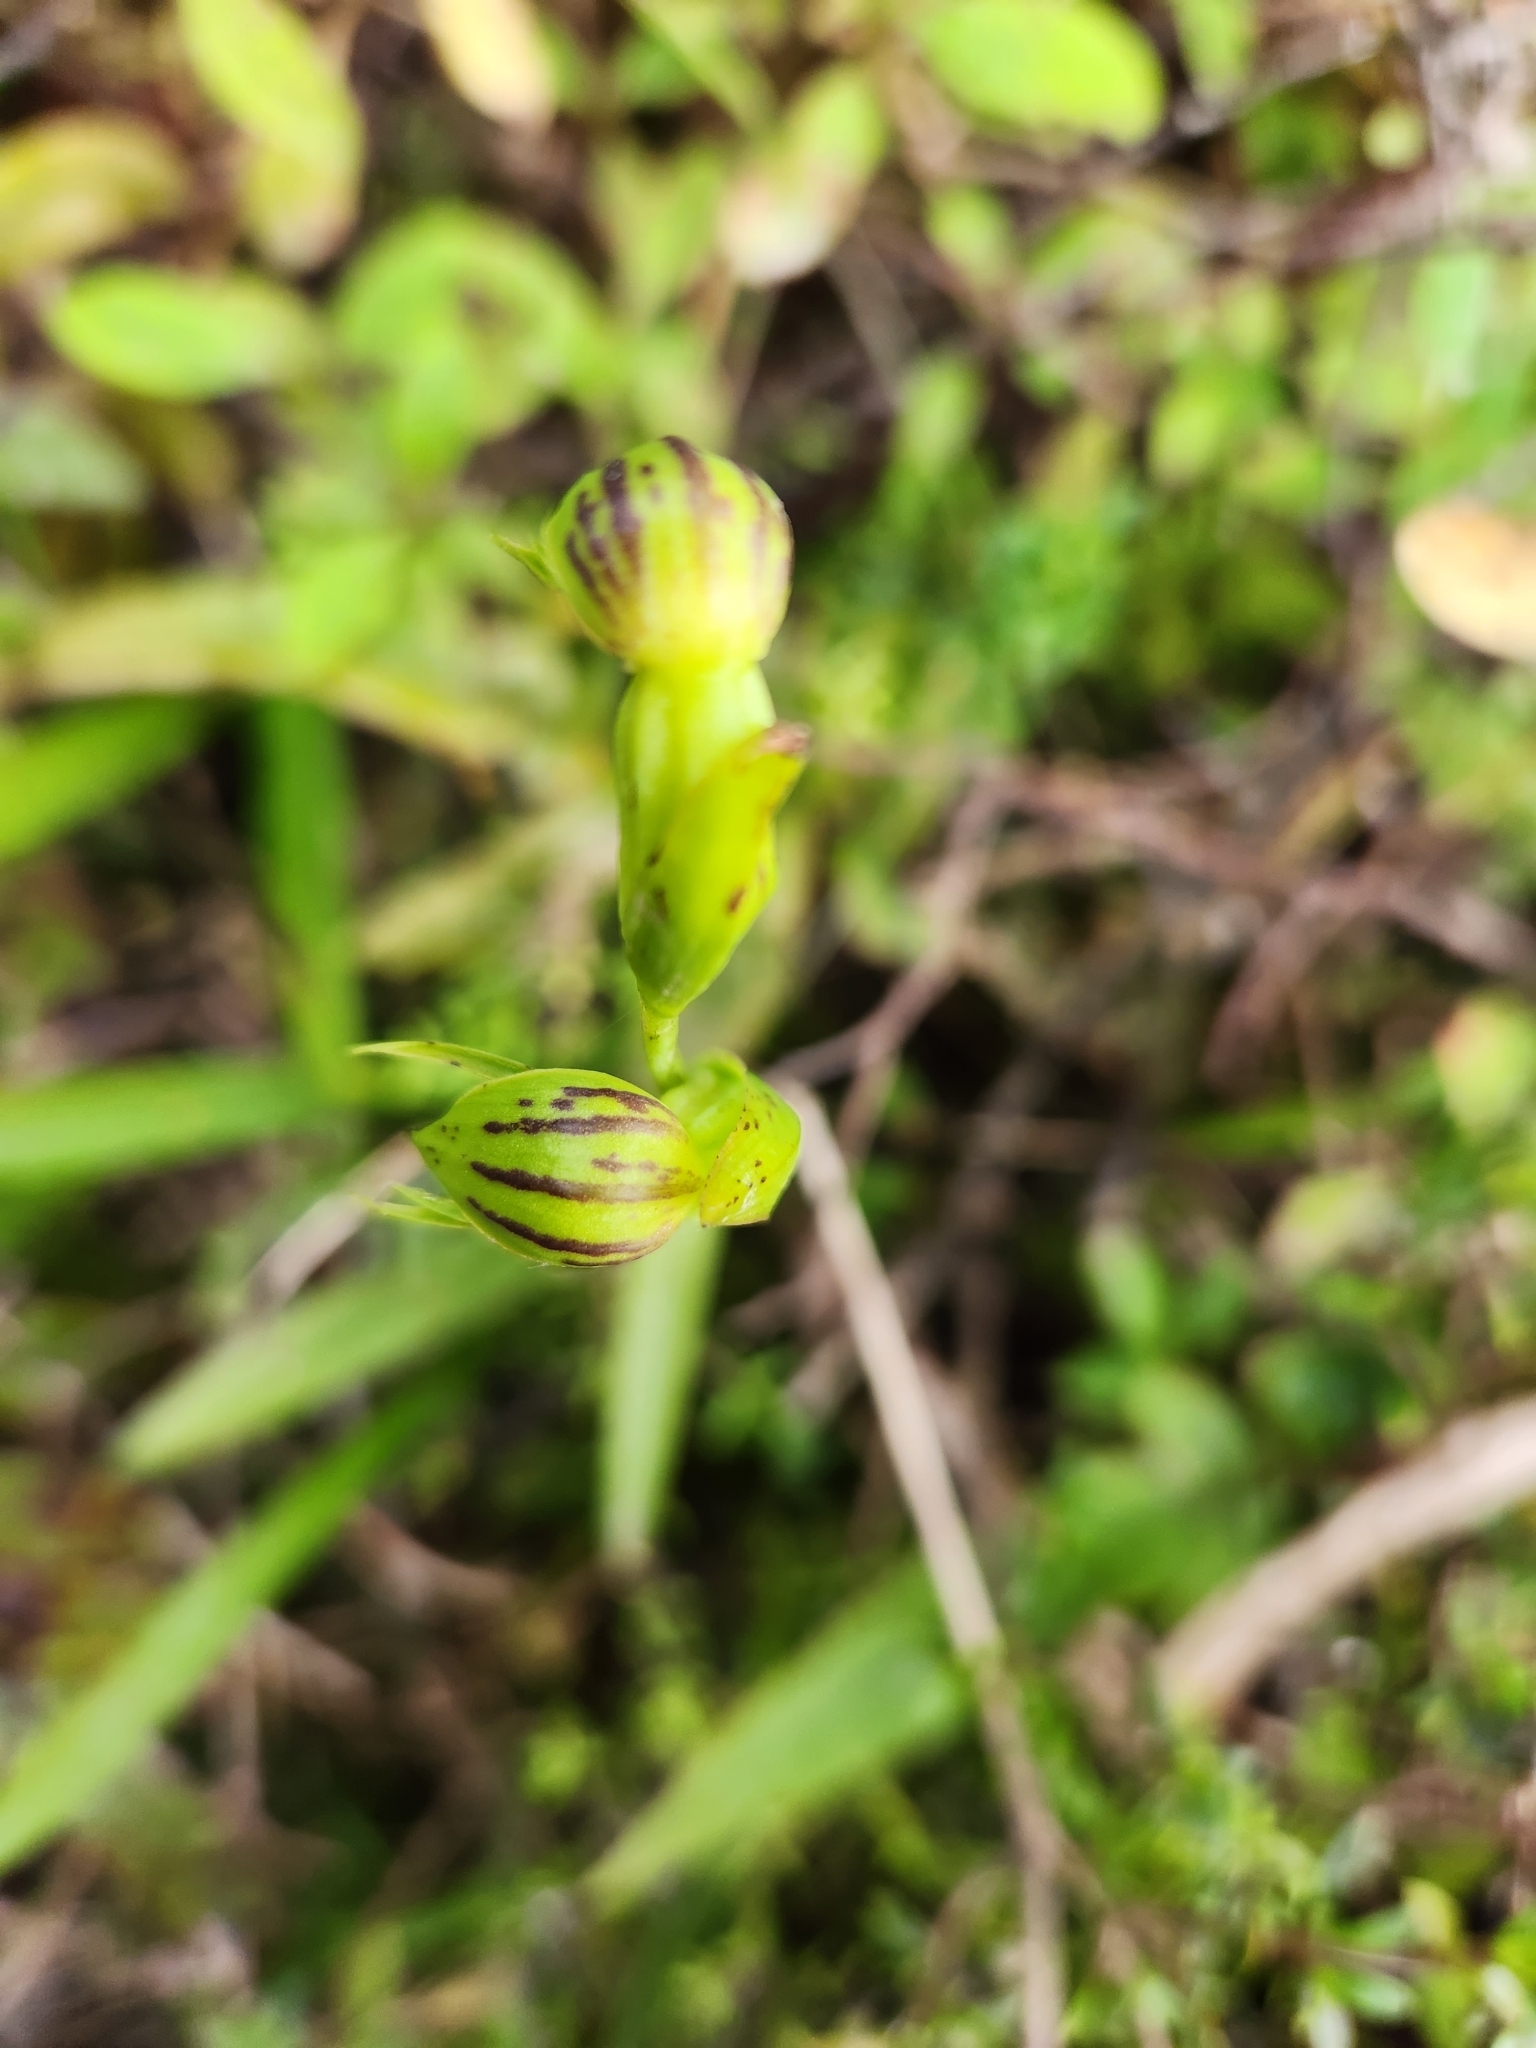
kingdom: Plantae
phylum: Tracheophyta
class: Liliopsida
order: Asparagales
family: Orchidaceae
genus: Waireia
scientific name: Waireia stenopetala
